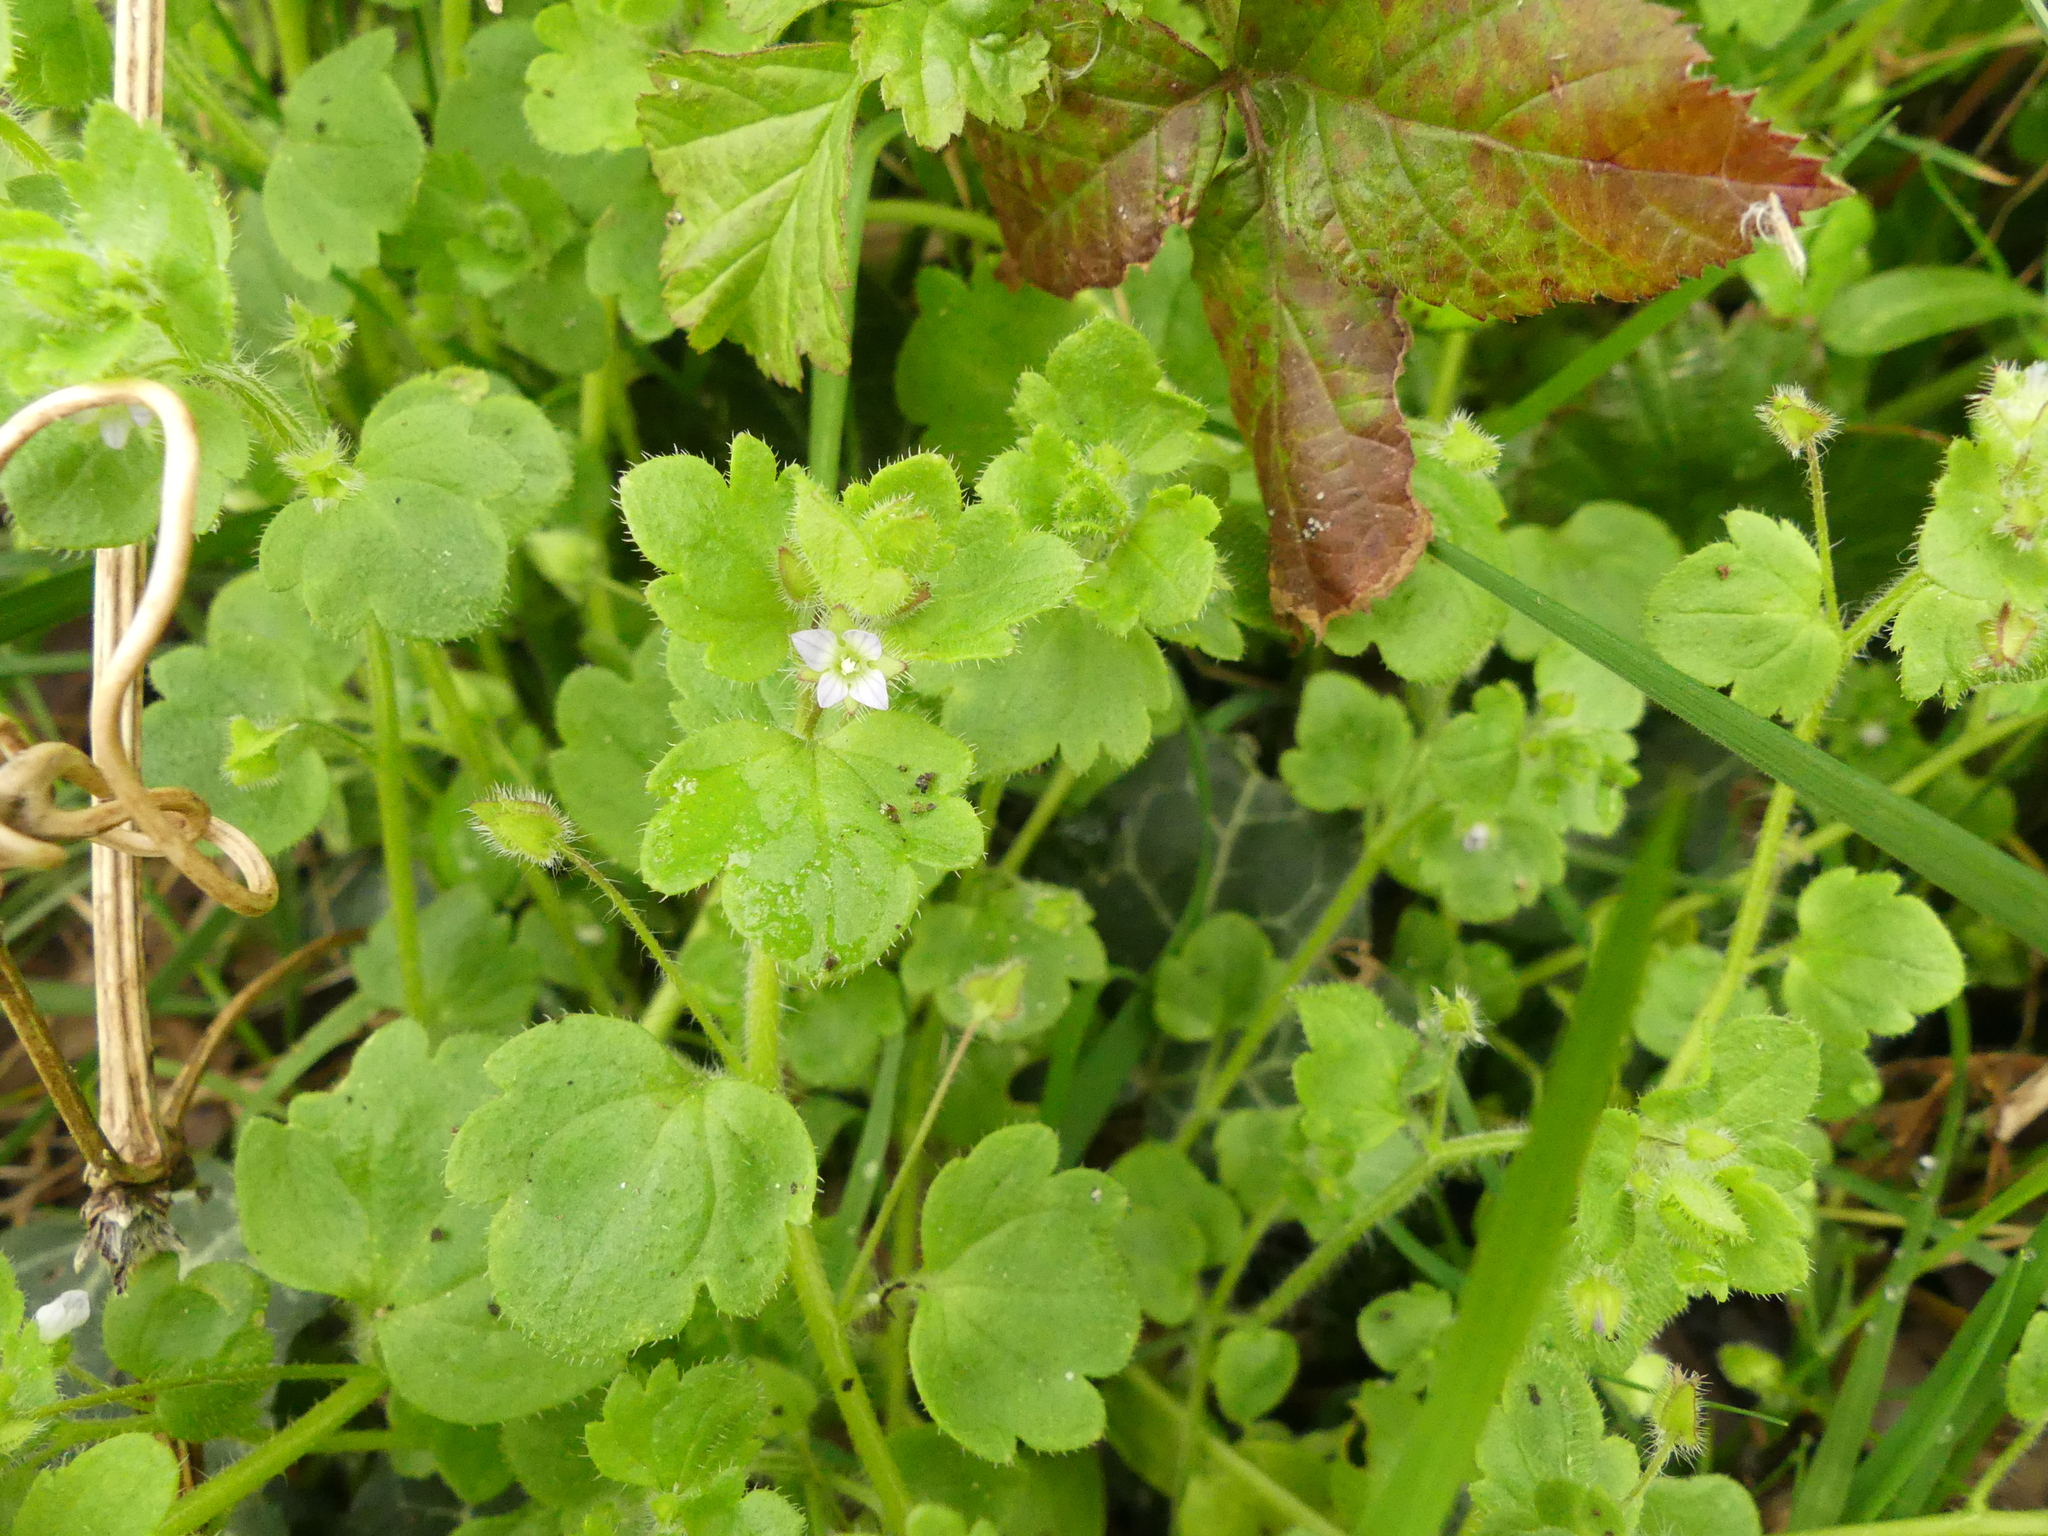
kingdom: Plantae
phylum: Tracheophyta
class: Magnoliopsida
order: Lamiales
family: Plantaginaceae
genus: Veronica
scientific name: Veronica sublobata
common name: False ivy-leaved speedwell
